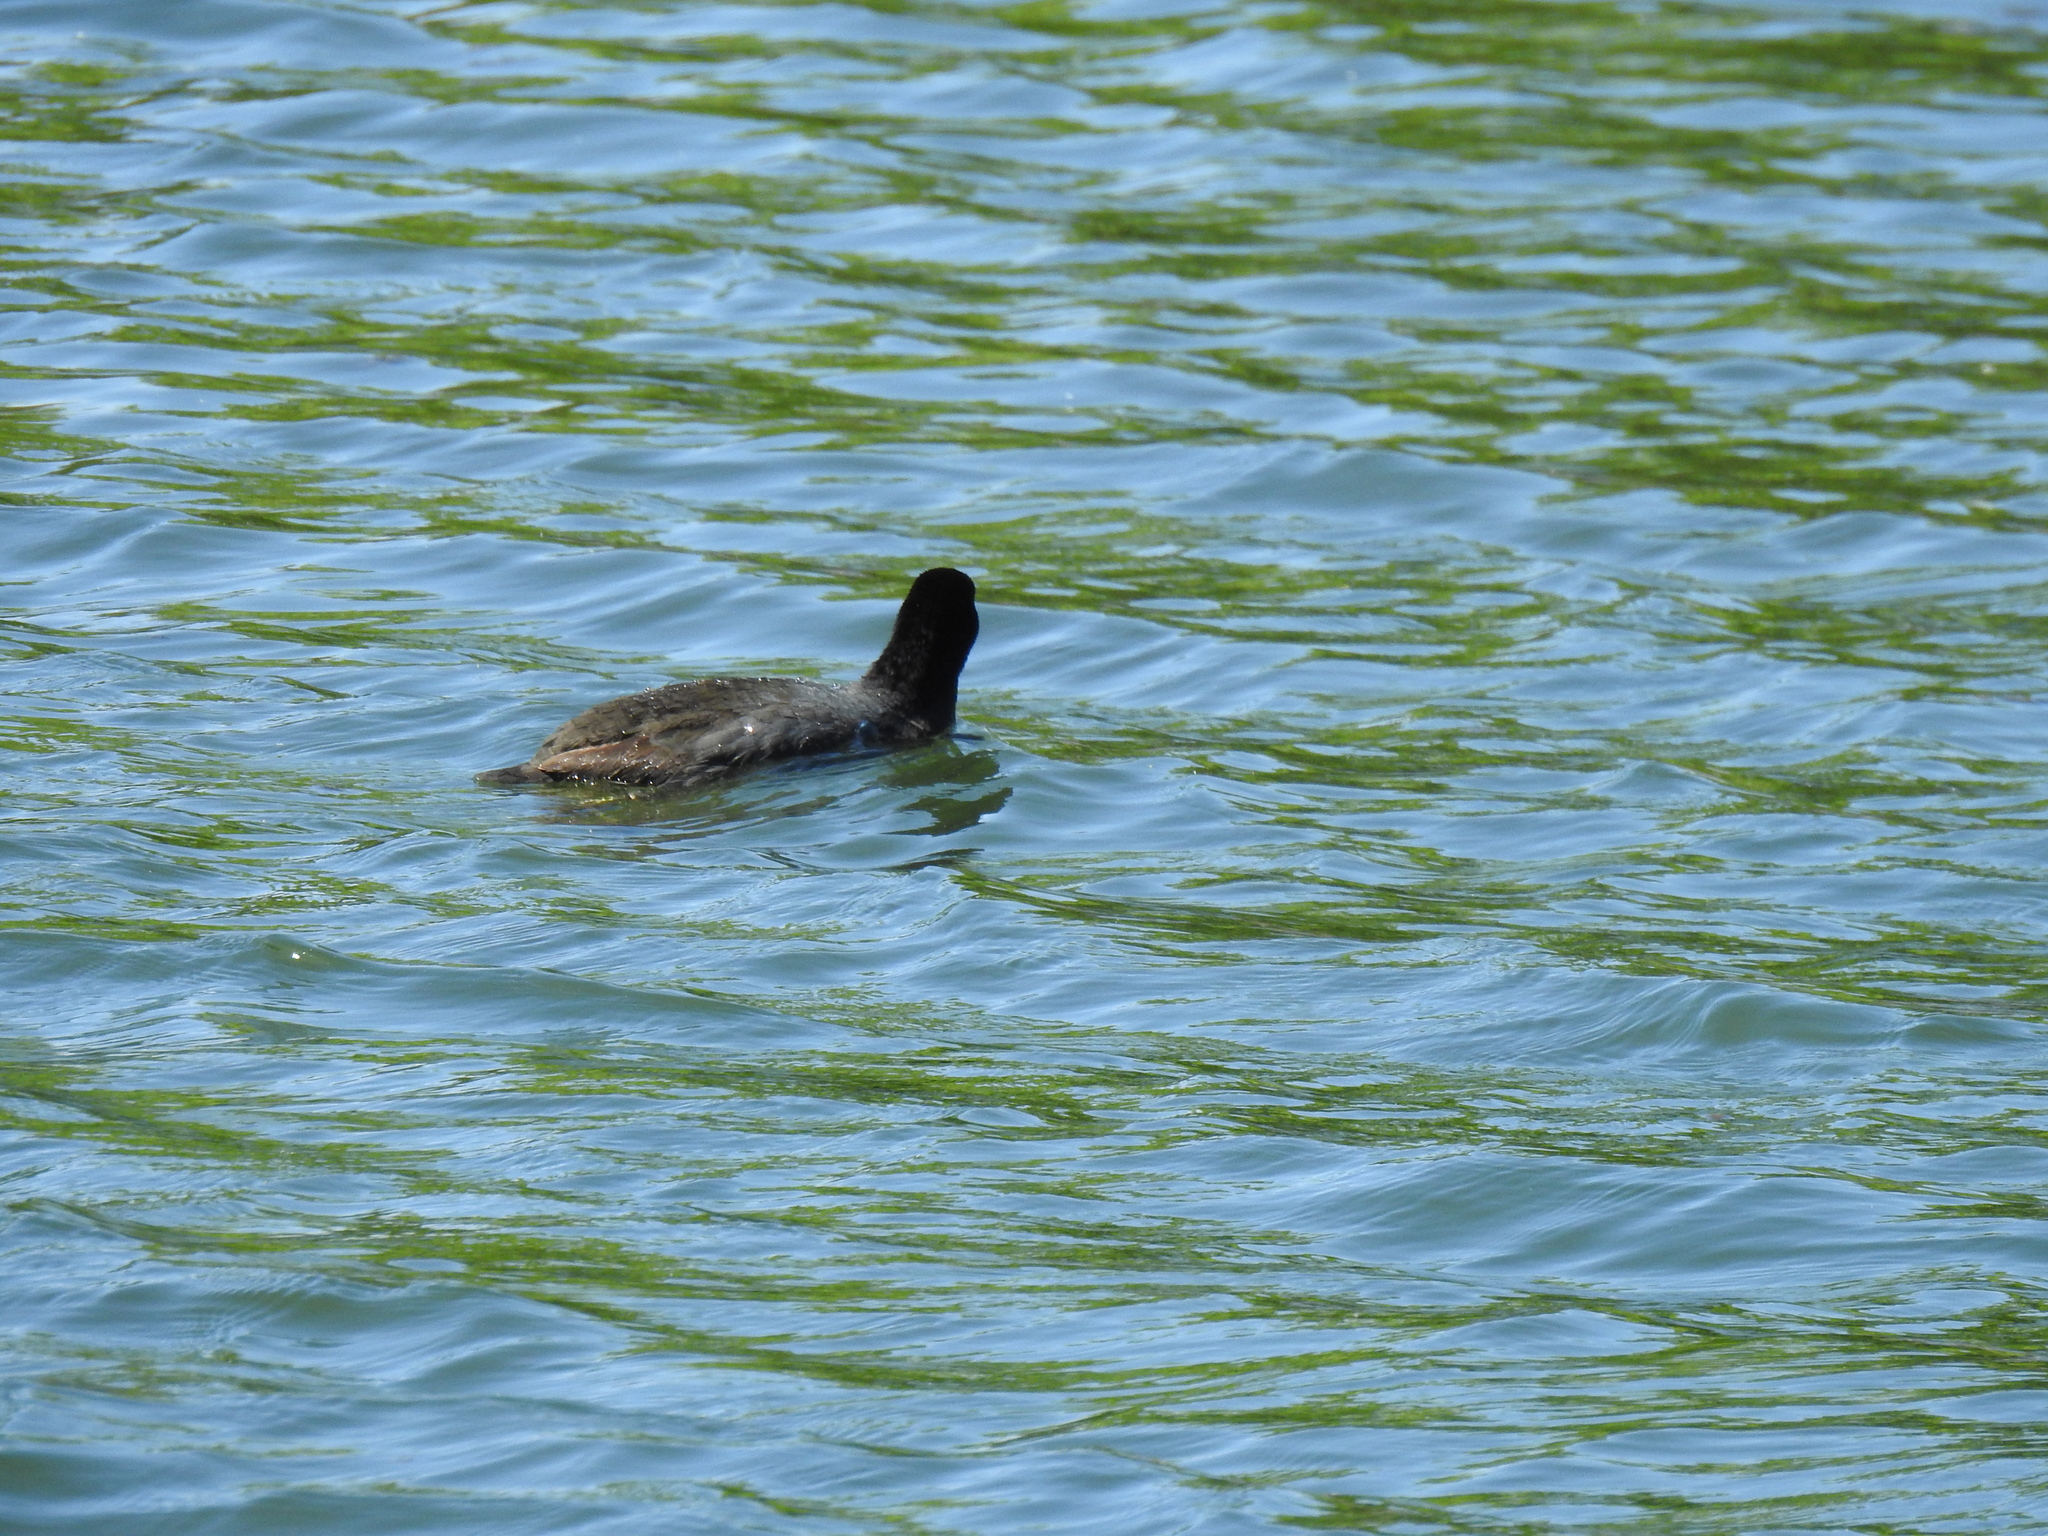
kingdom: Animalia
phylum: Chordata
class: Aves
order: Gruiformes
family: Rallidae
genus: Fulica
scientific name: Fulica americana
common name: American coot
